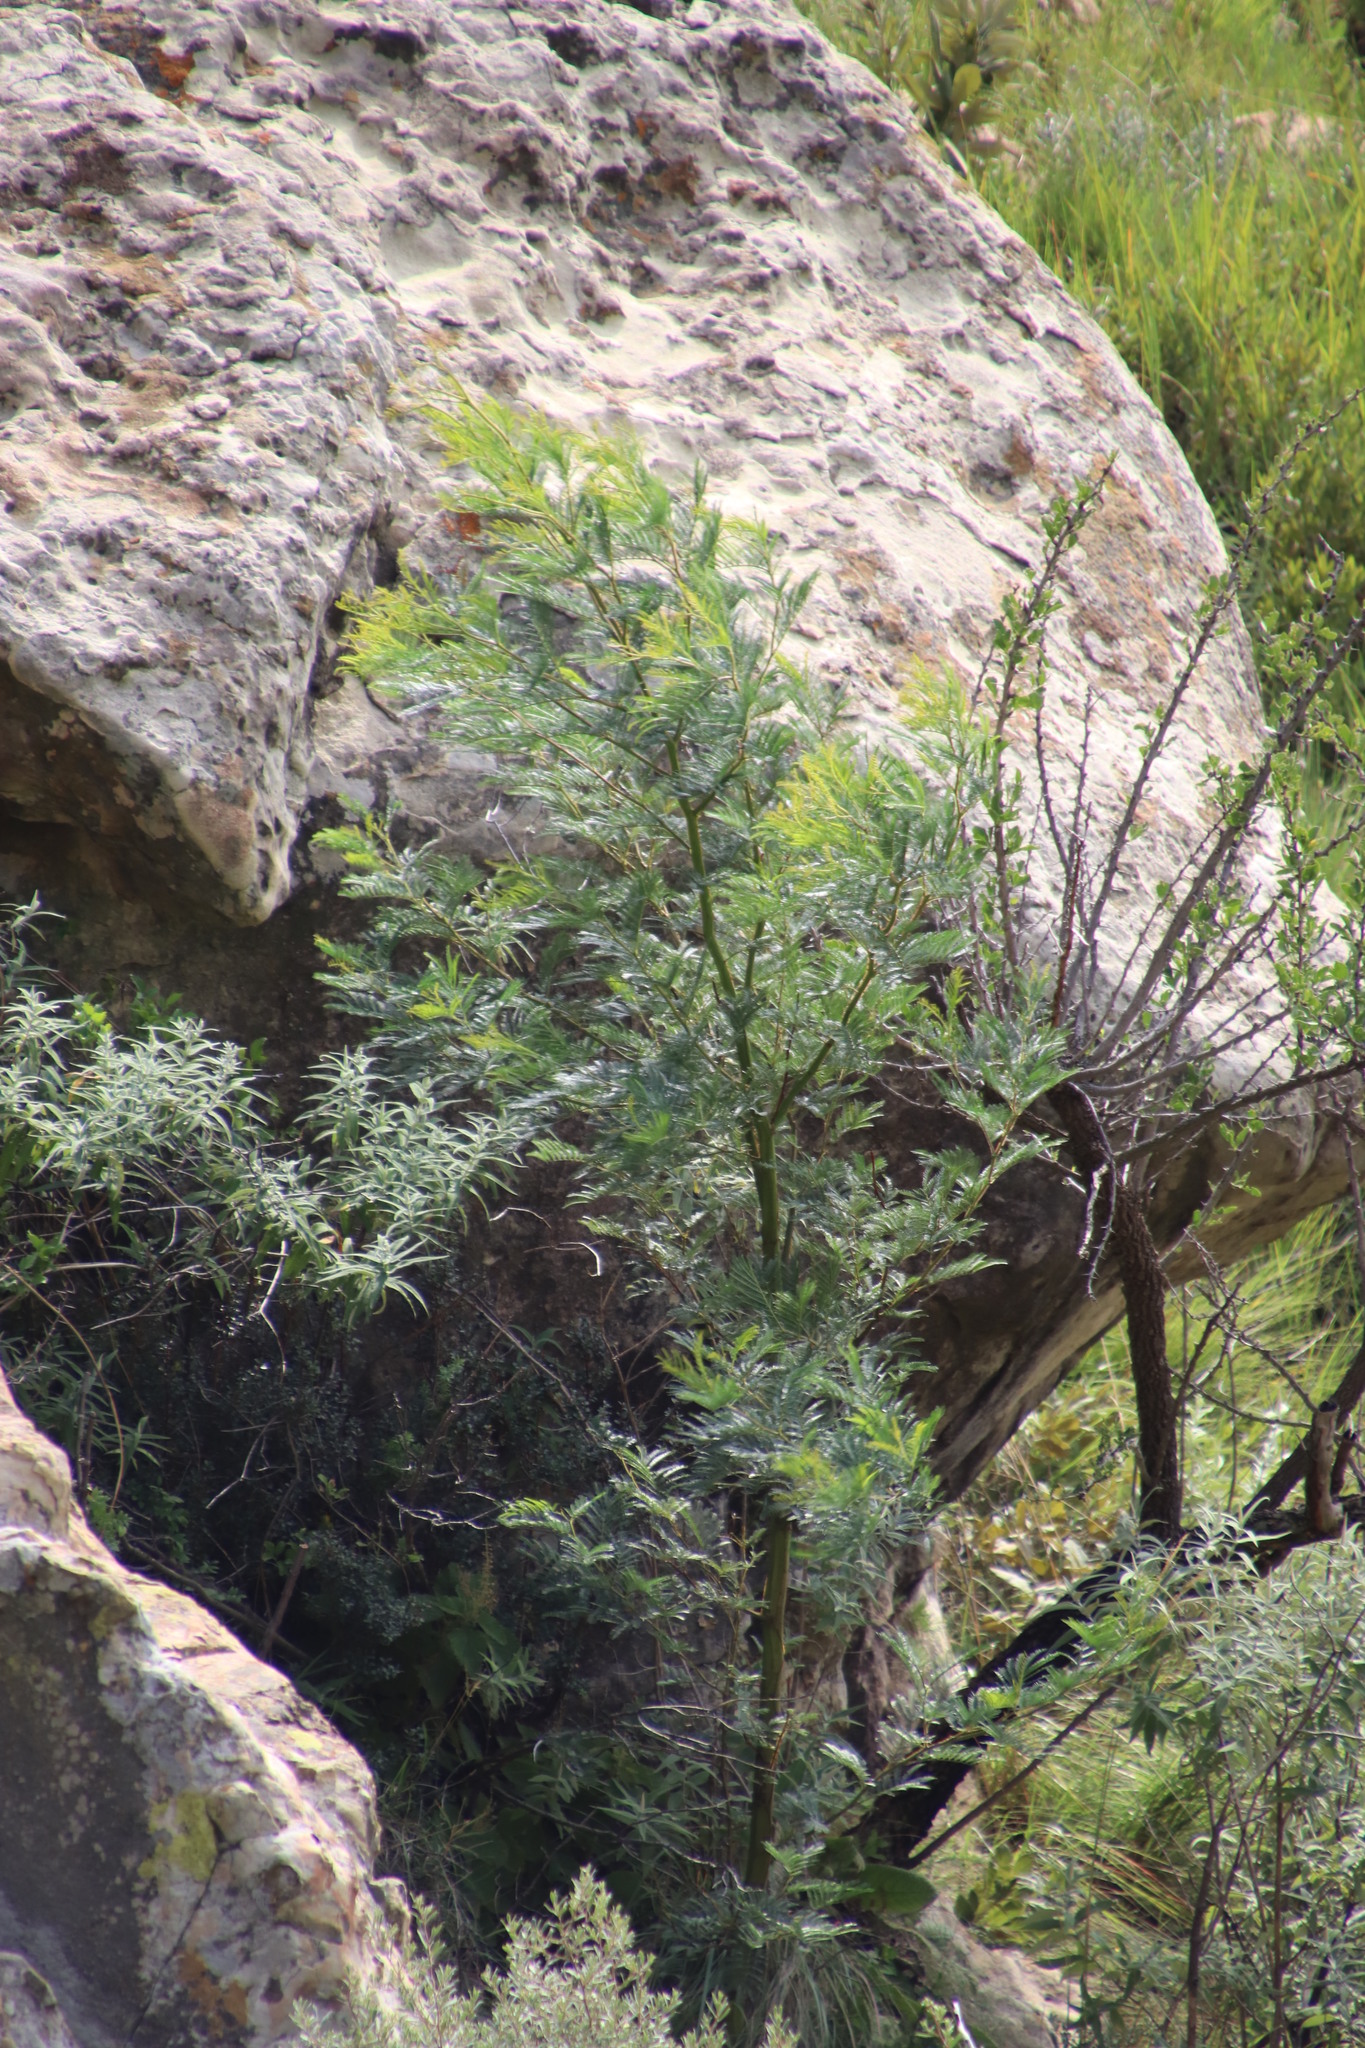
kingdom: Plantae
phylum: Tracheophyta
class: Magnoliopsida
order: Fabales
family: Fabaceae
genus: Acacia
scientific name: Acacia mearnsii
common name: Black wattle
